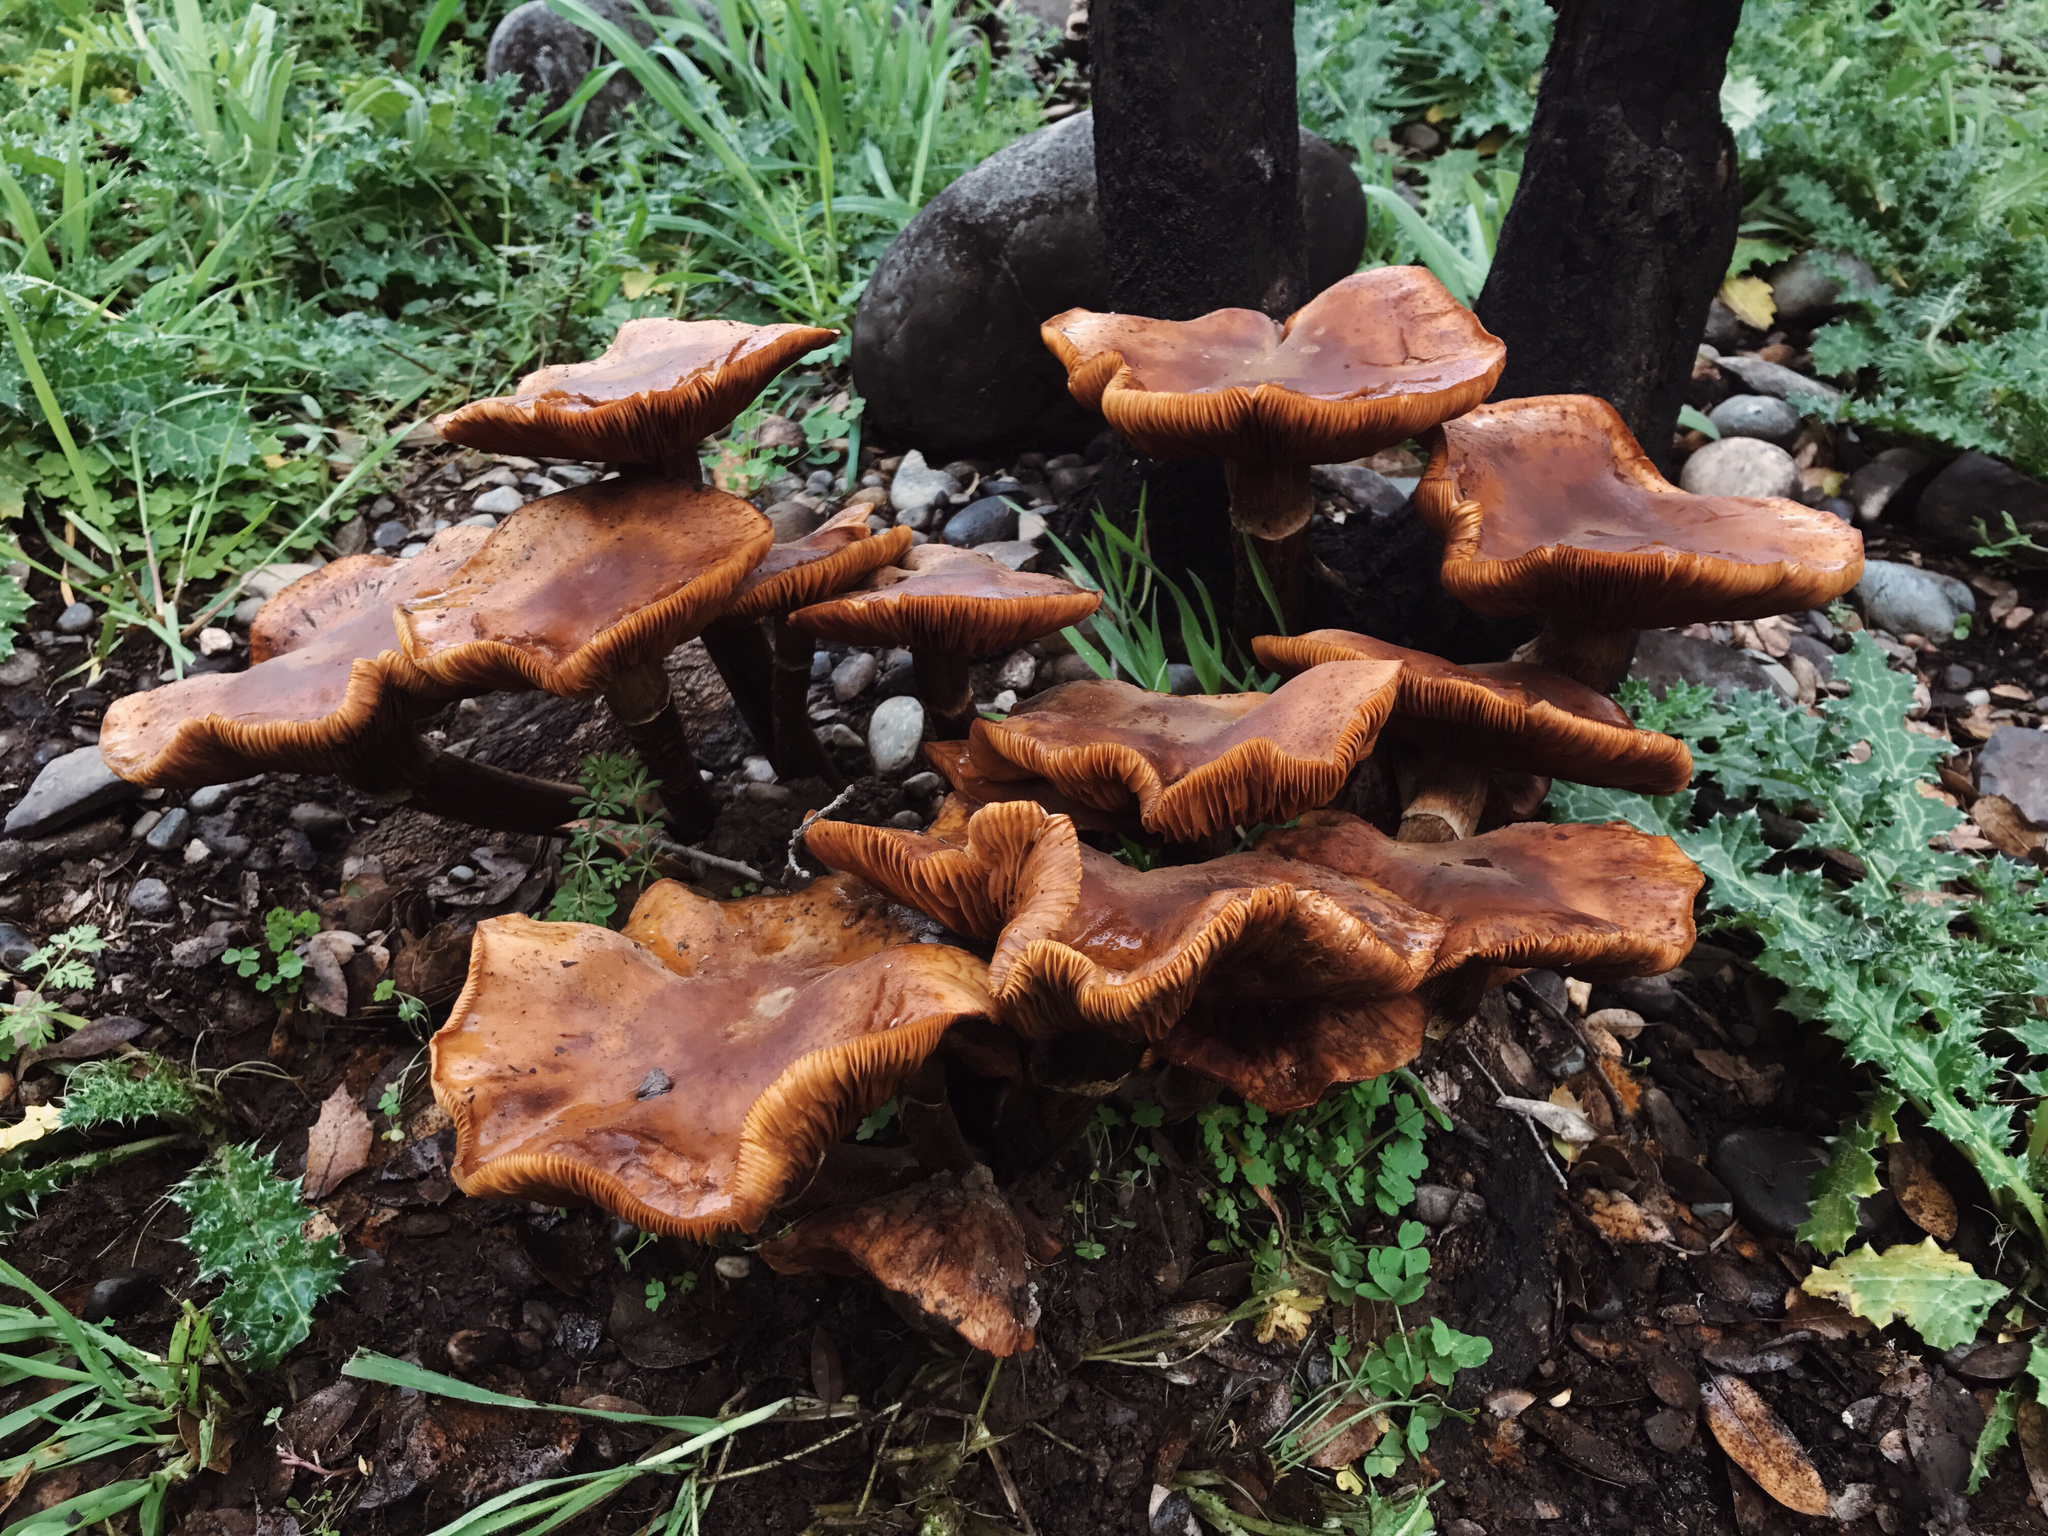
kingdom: Fungi
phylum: Basidiomycota
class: Agaricomycetes
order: Agaricales
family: Physalacriaceae
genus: Armillaria
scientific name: Armillaria mellea
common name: Honey fungus
